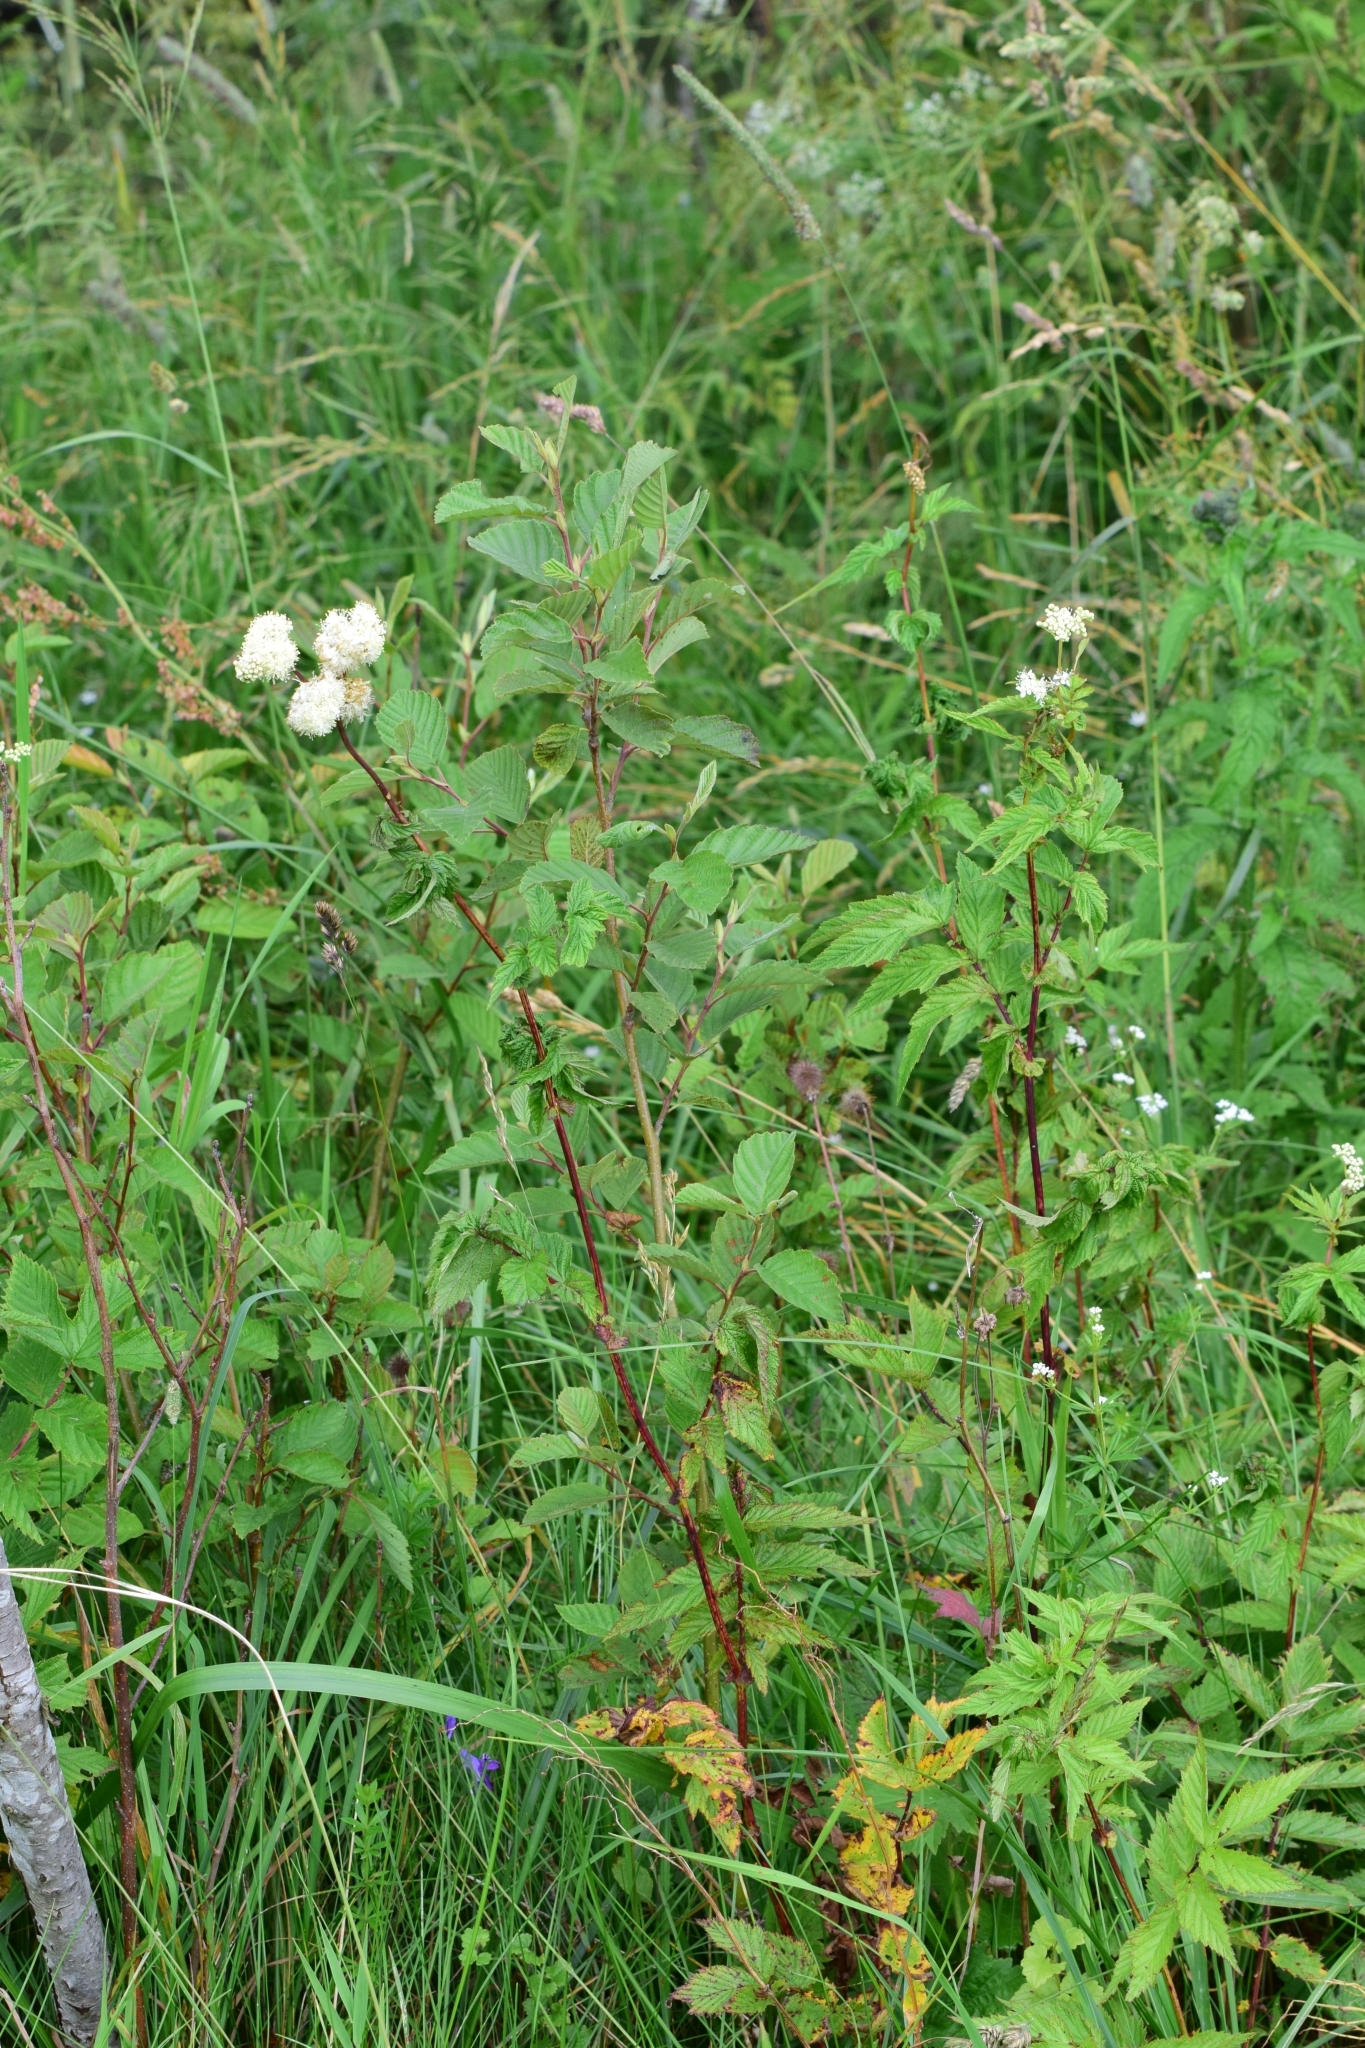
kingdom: Plantae
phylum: Tracheophyta
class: Magnoliopsida
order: Rosales
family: Rosaceae
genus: Filipendula
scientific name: Filipendula ulmaria
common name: Meadowsweet
